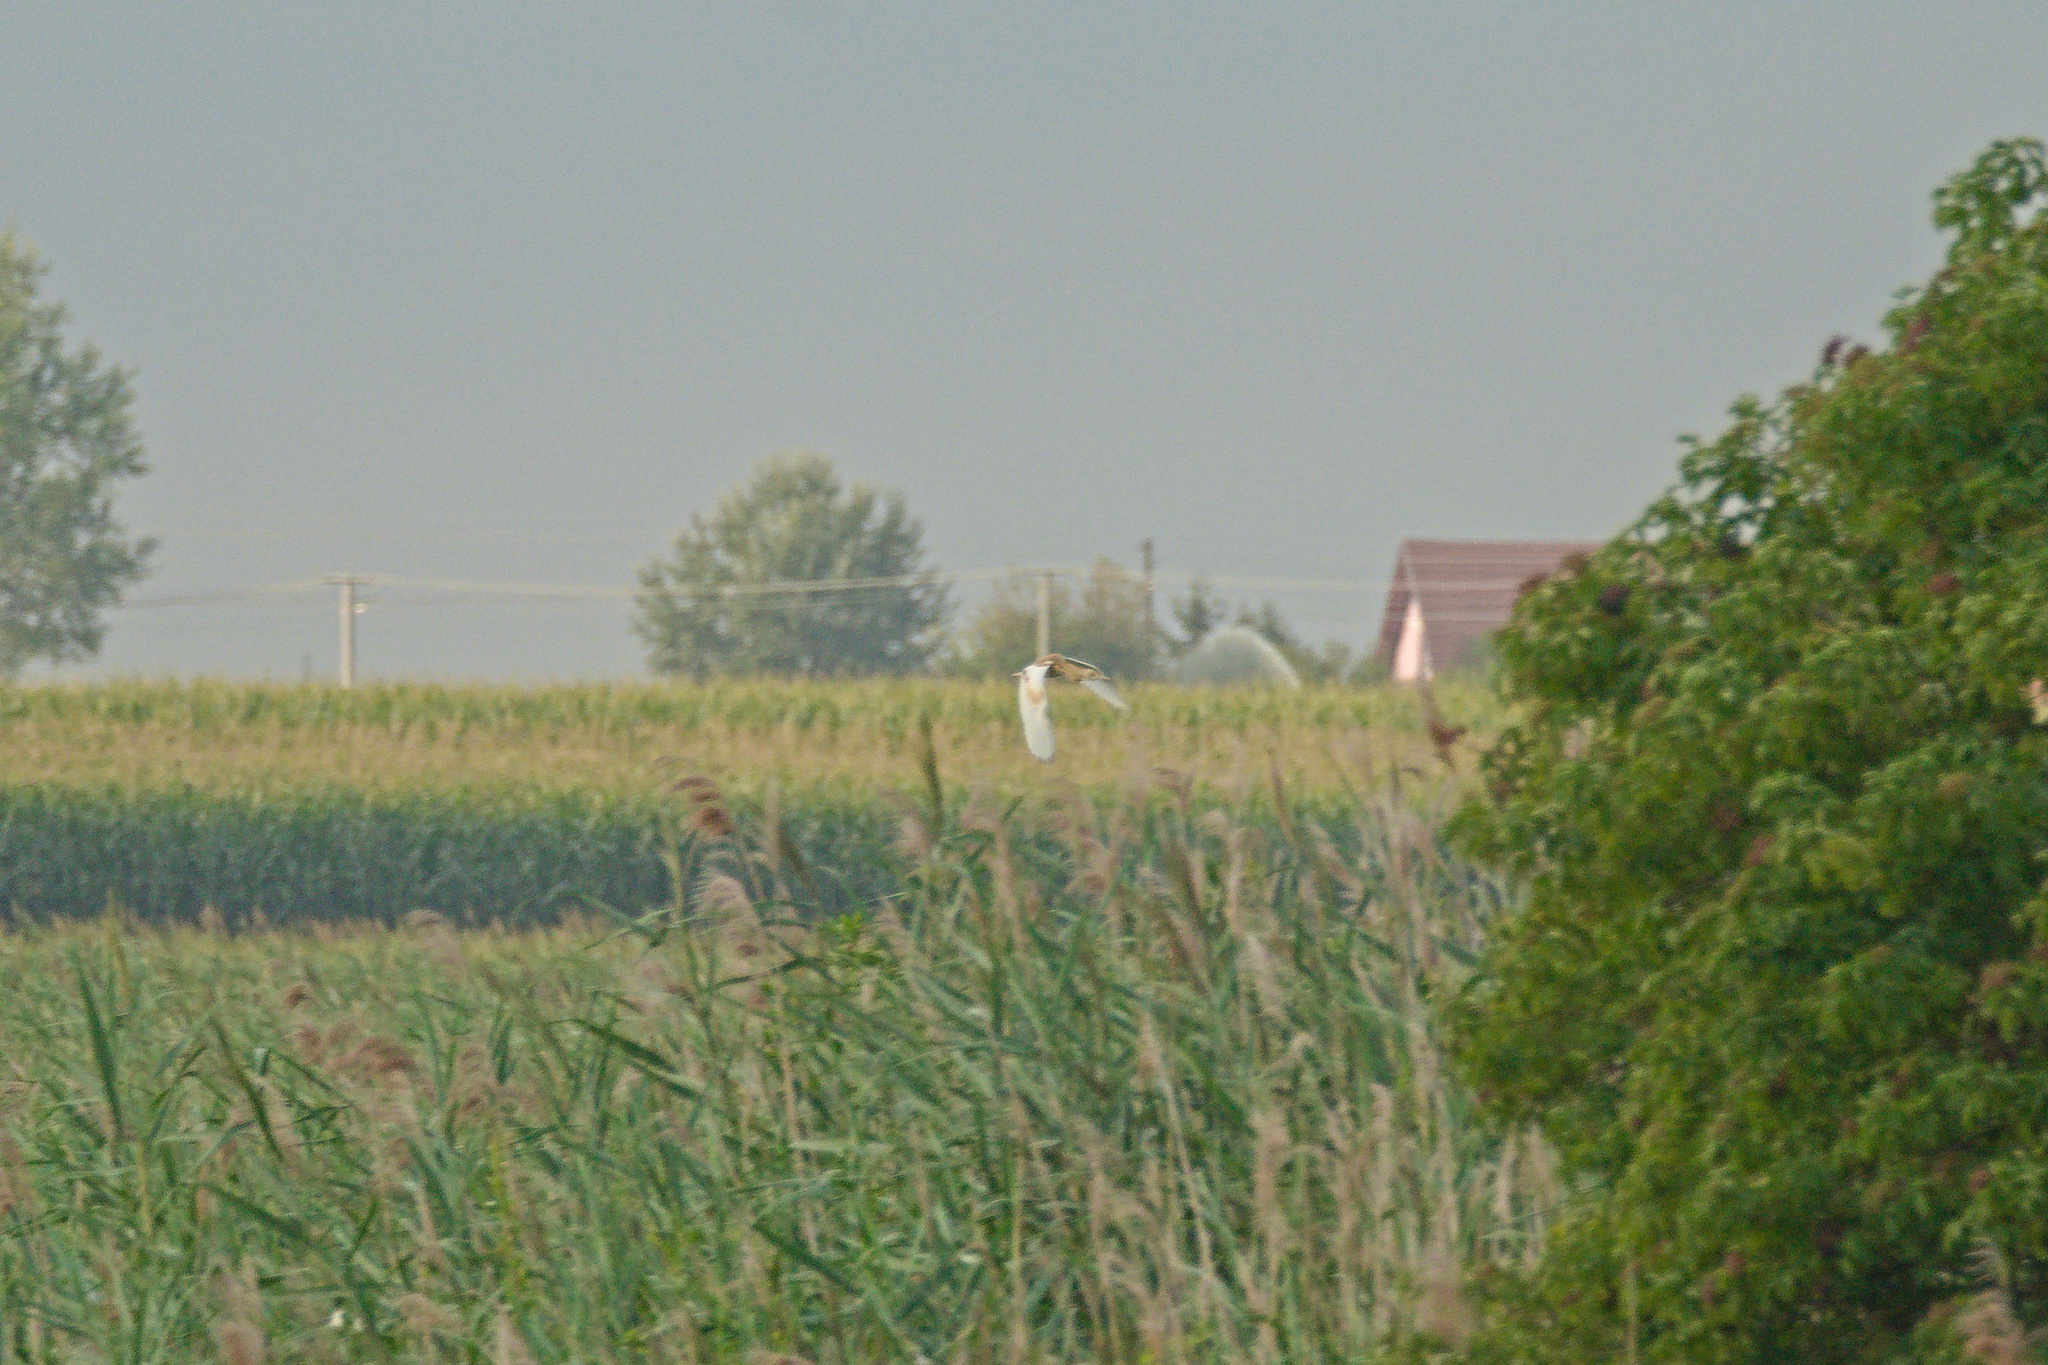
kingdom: Animalia
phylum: Chordata
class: Aves
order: Pelecaniformes
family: Ardeidae
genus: Ardeola
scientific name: Ardeola ralloides
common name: Squacco heron
